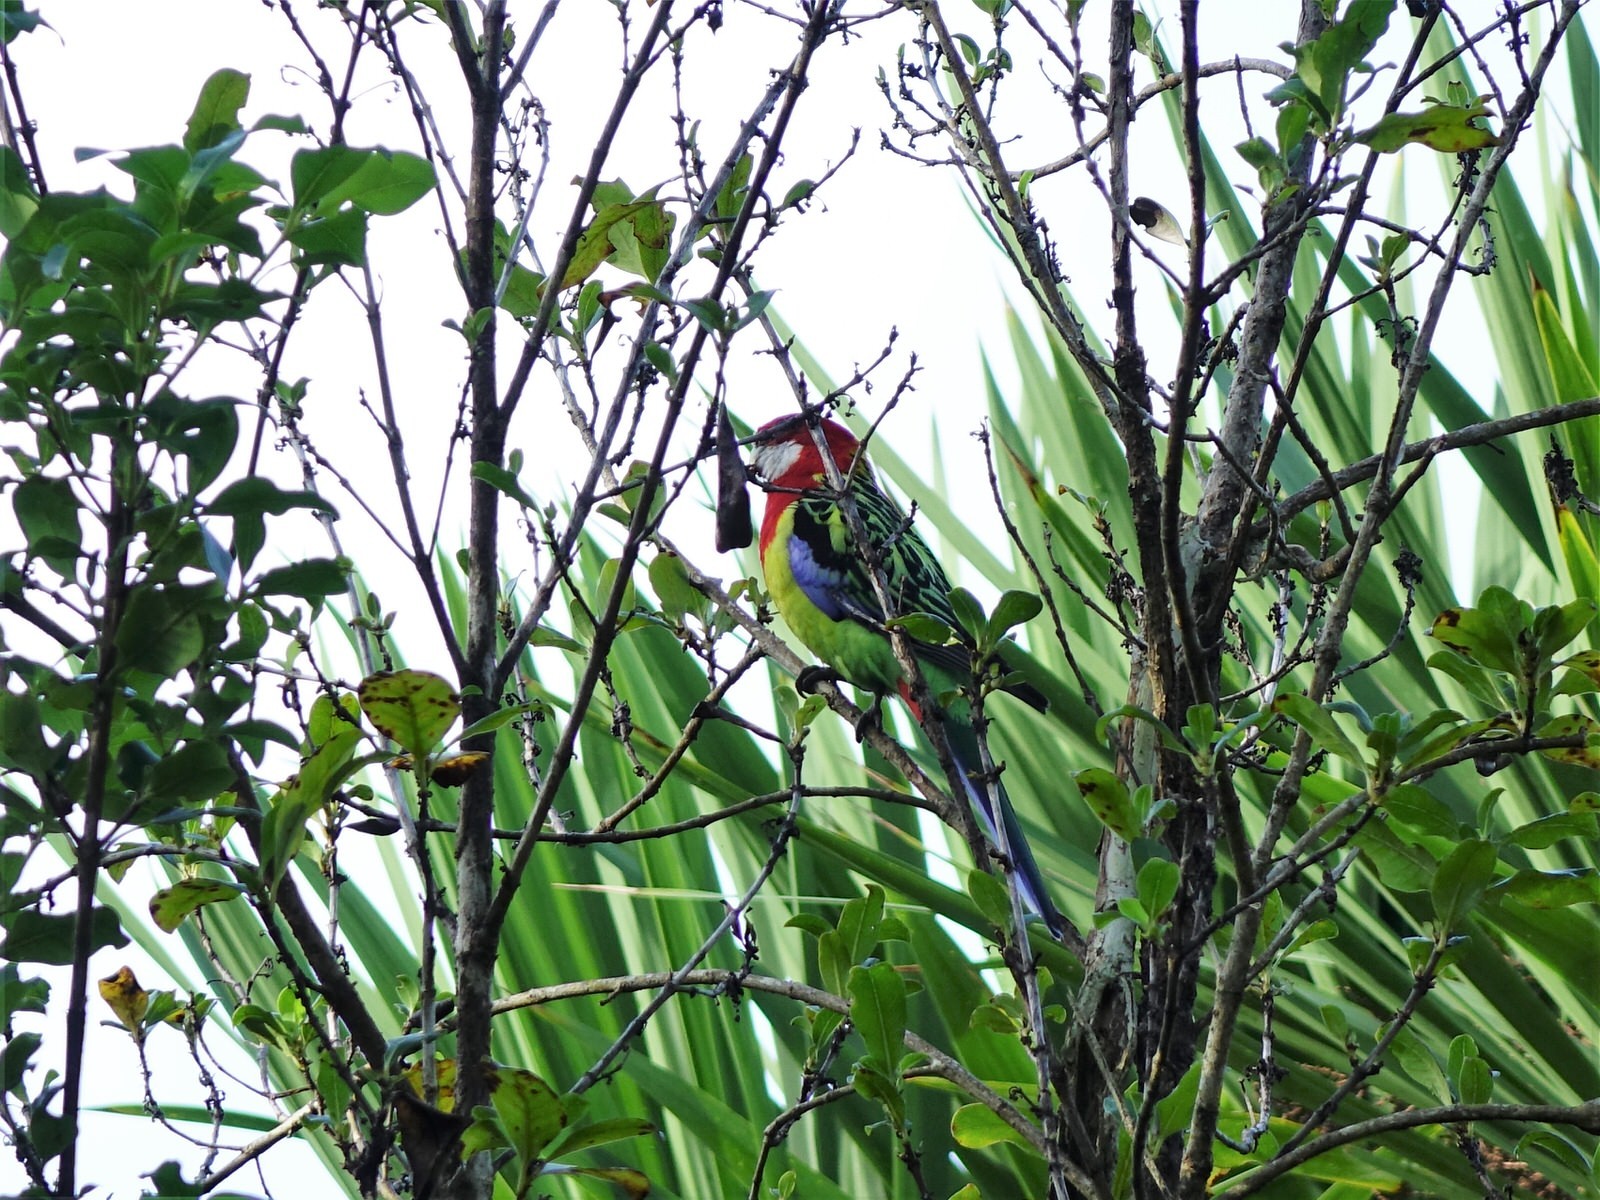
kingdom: Animalia
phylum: Chordata
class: Aves
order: Psittaciformes
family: Psittacidae
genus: Platycercus
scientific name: Platycercus eximius
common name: Eastern rosella
